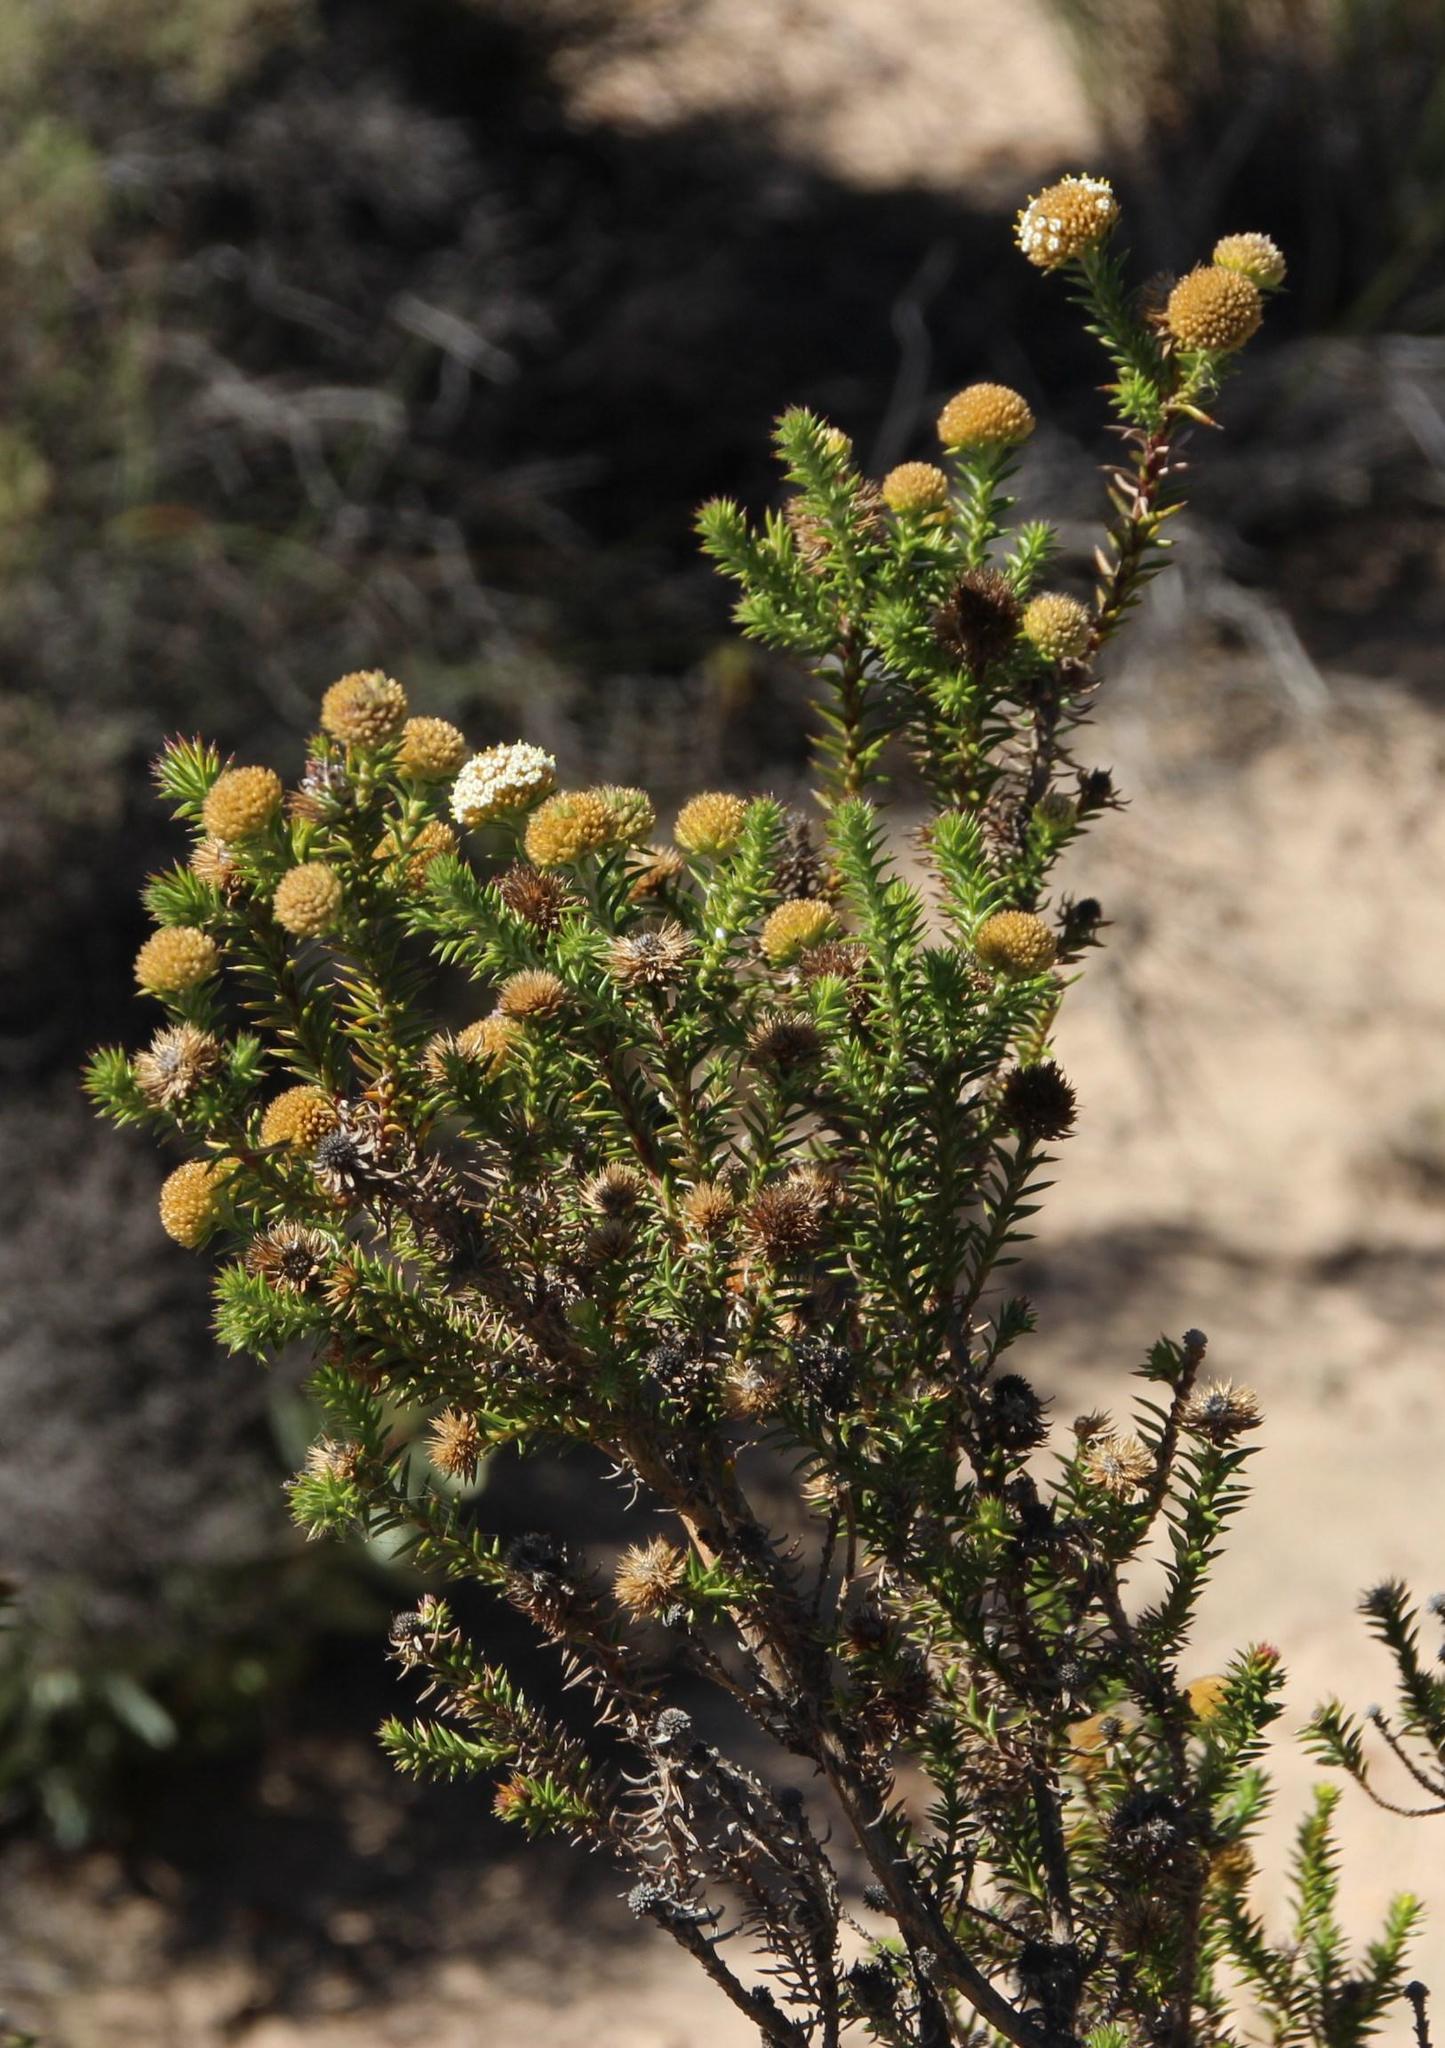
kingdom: Plantae
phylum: Tracheophyta
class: Magnoliopsida
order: Asterales
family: Asteraceae
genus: Stoebe
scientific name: Stoebe aethiopica
